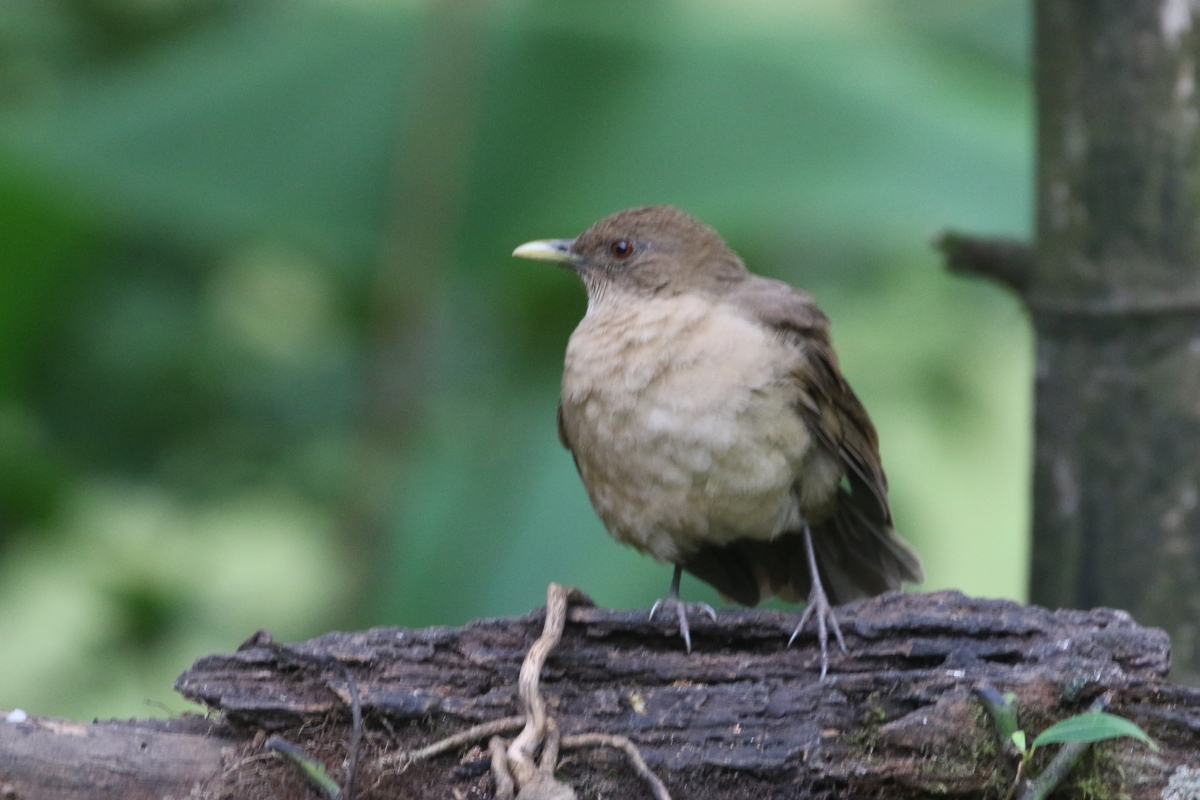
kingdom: Animalia
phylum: Chordata
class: Aves
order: Passeriformes
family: Turdidae
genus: Turdus
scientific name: Turdus grayi
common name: Clay-colored thrush
